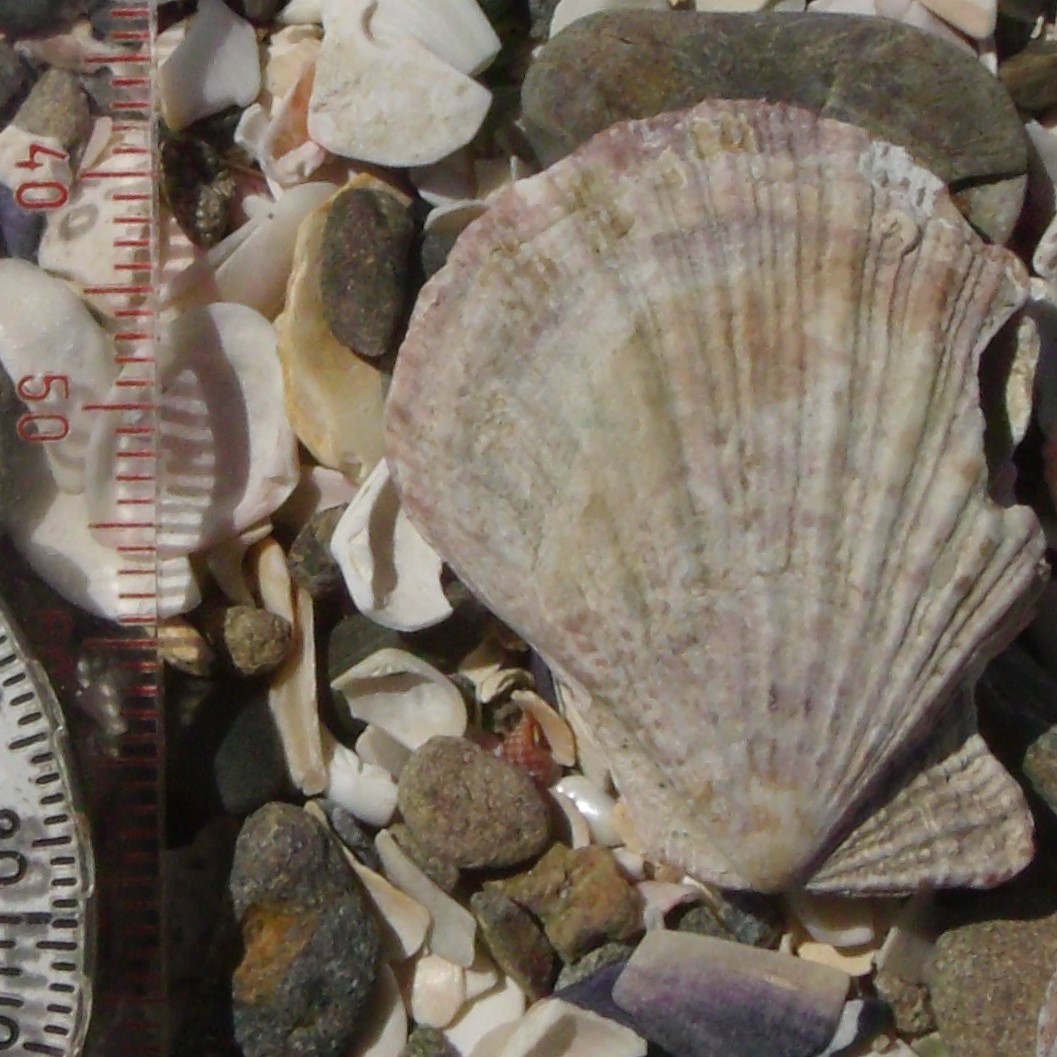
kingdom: Animalia
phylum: Mollusca
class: Bivalvia
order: Pectinida
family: Pectinidae
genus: Talochlamys
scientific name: Talochlamys zelandiae
